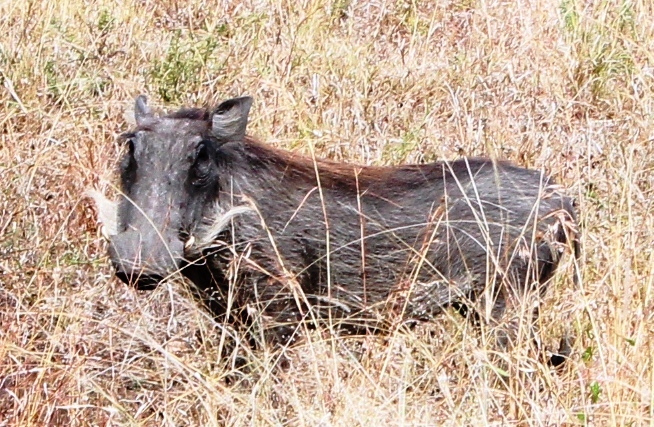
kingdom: Animalia
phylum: Chordata
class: Mammalia
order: Artiodactyla
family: Suidae
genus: Phacochoerus
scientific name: Phacochoerus africanus
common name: Common warthog
